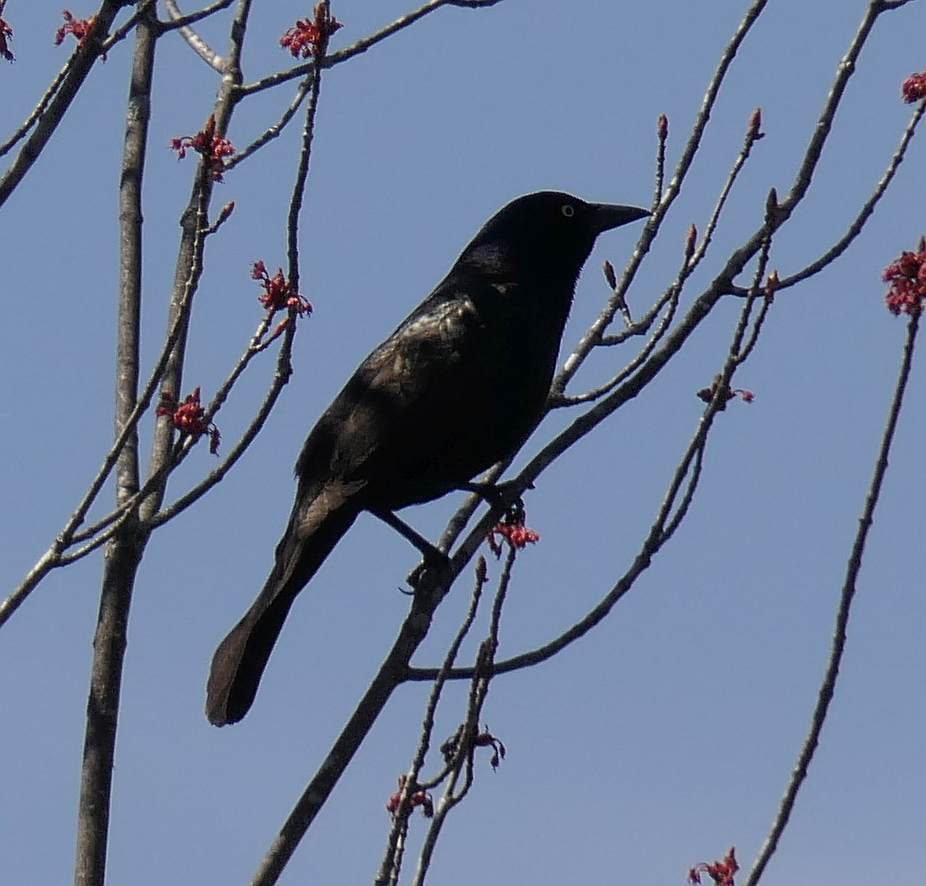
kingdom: Animalia
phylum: Chordata
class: Aves
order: Passeriformes
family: Icteridae
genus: Quiscalus
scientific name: Quiscalus quiscula
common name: Common grackle
